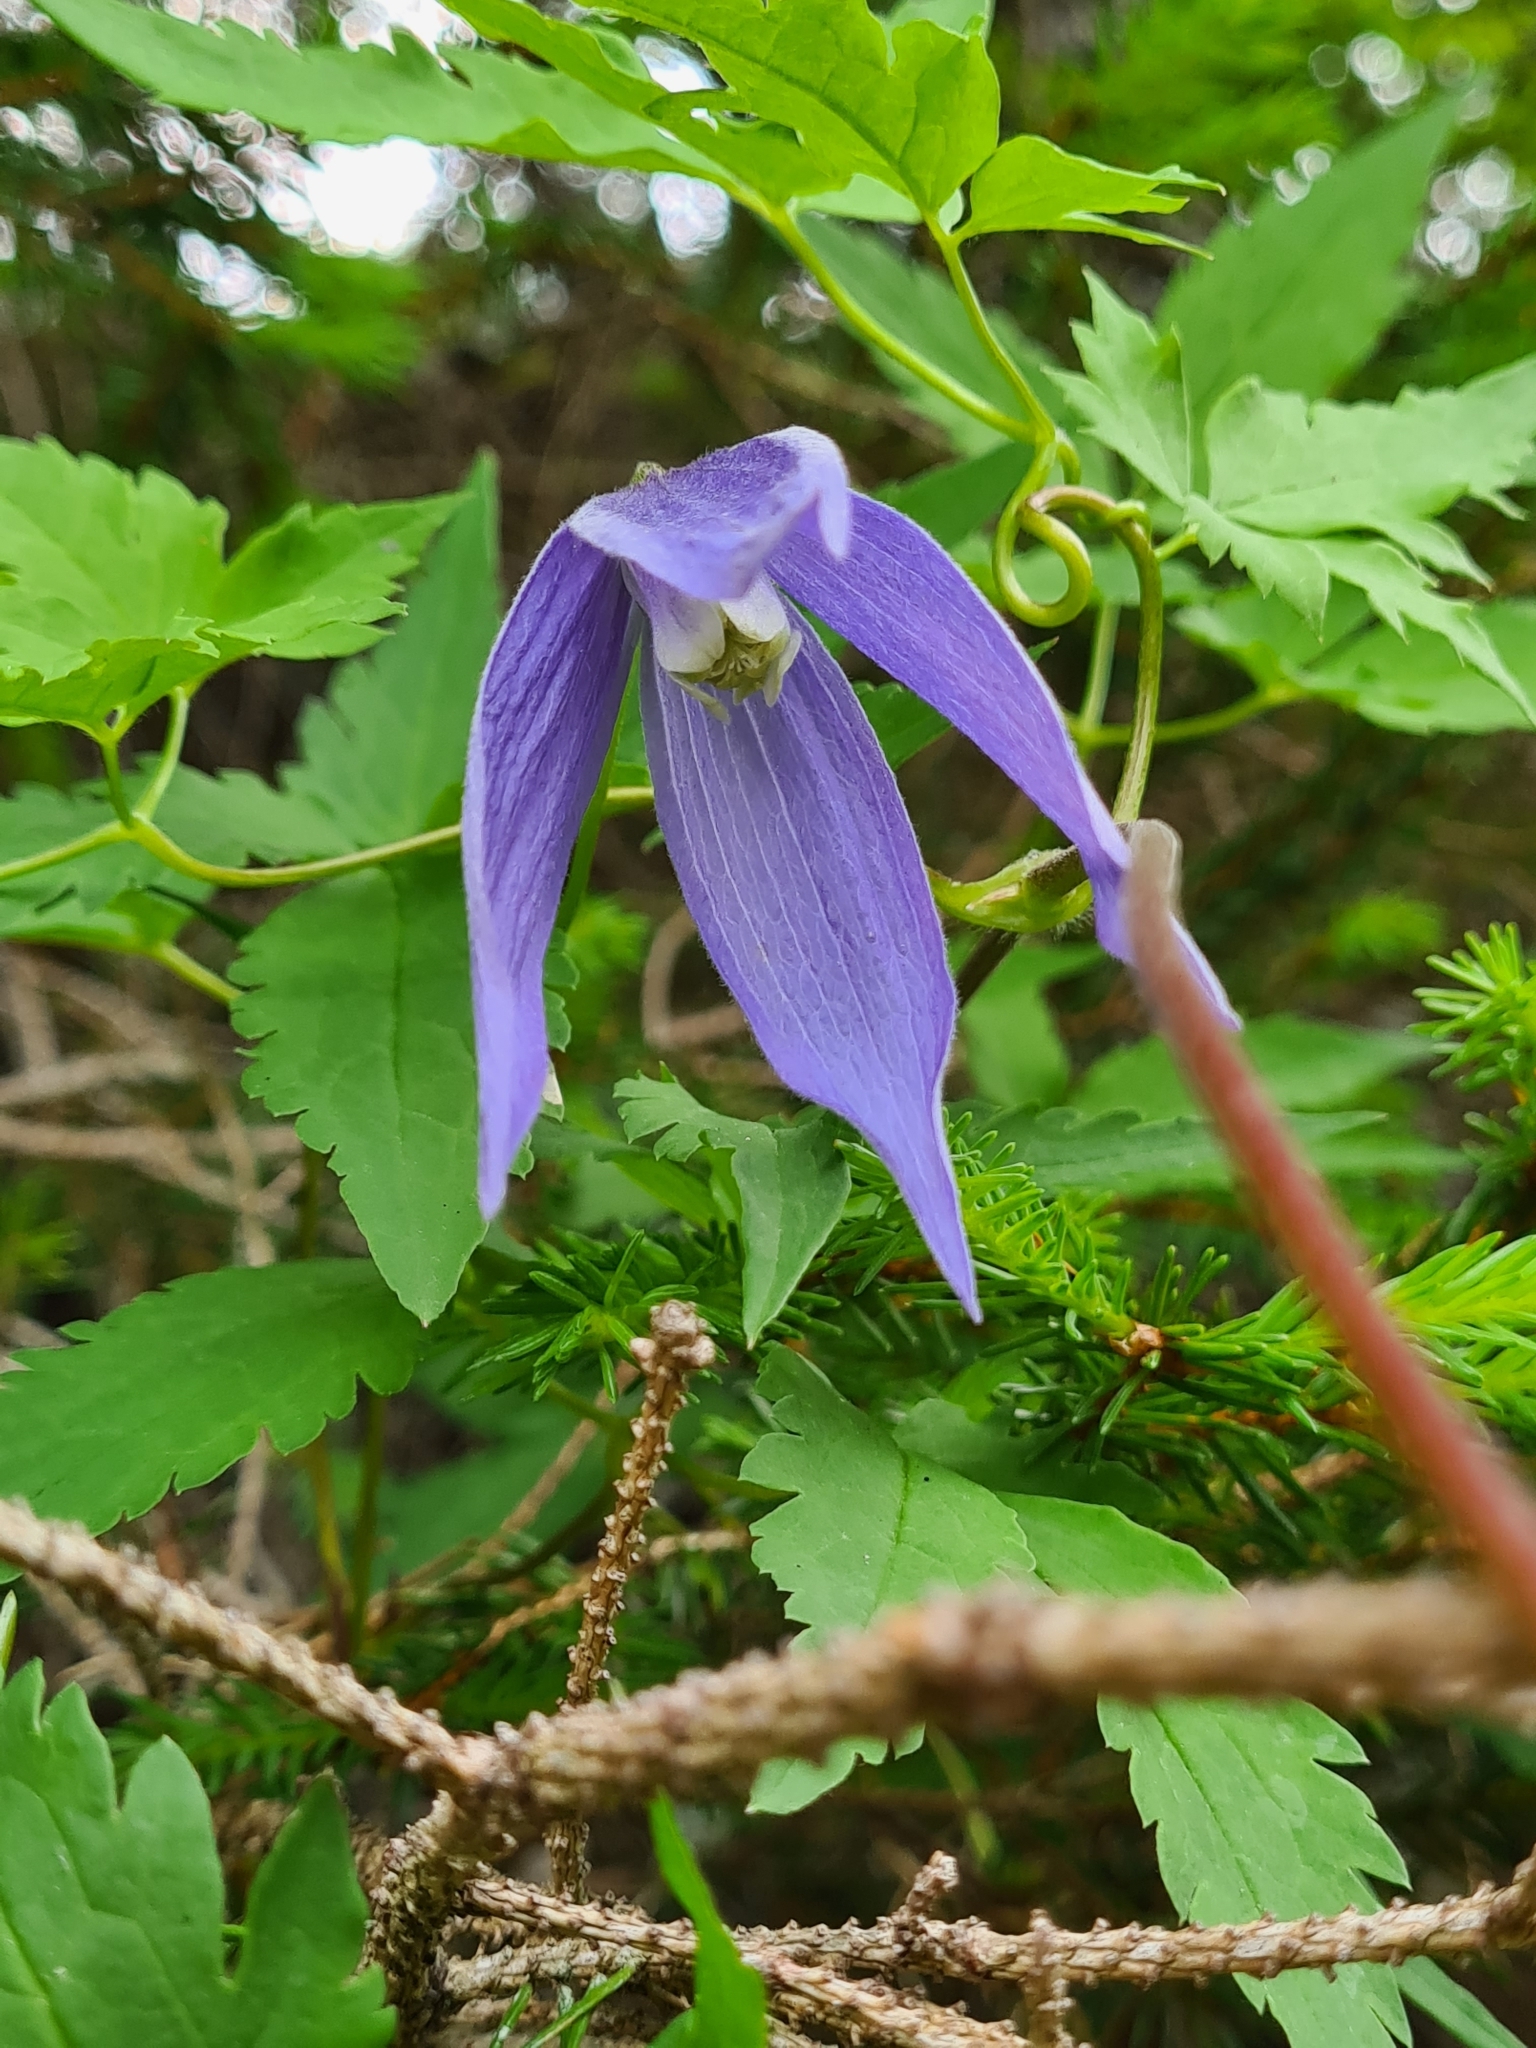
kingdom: Plantae
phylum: Tracheophyta
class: Magnoliopsida
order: Ranunculales
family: Ranunculaceae
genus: Clematis
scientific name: Clematis alpina
